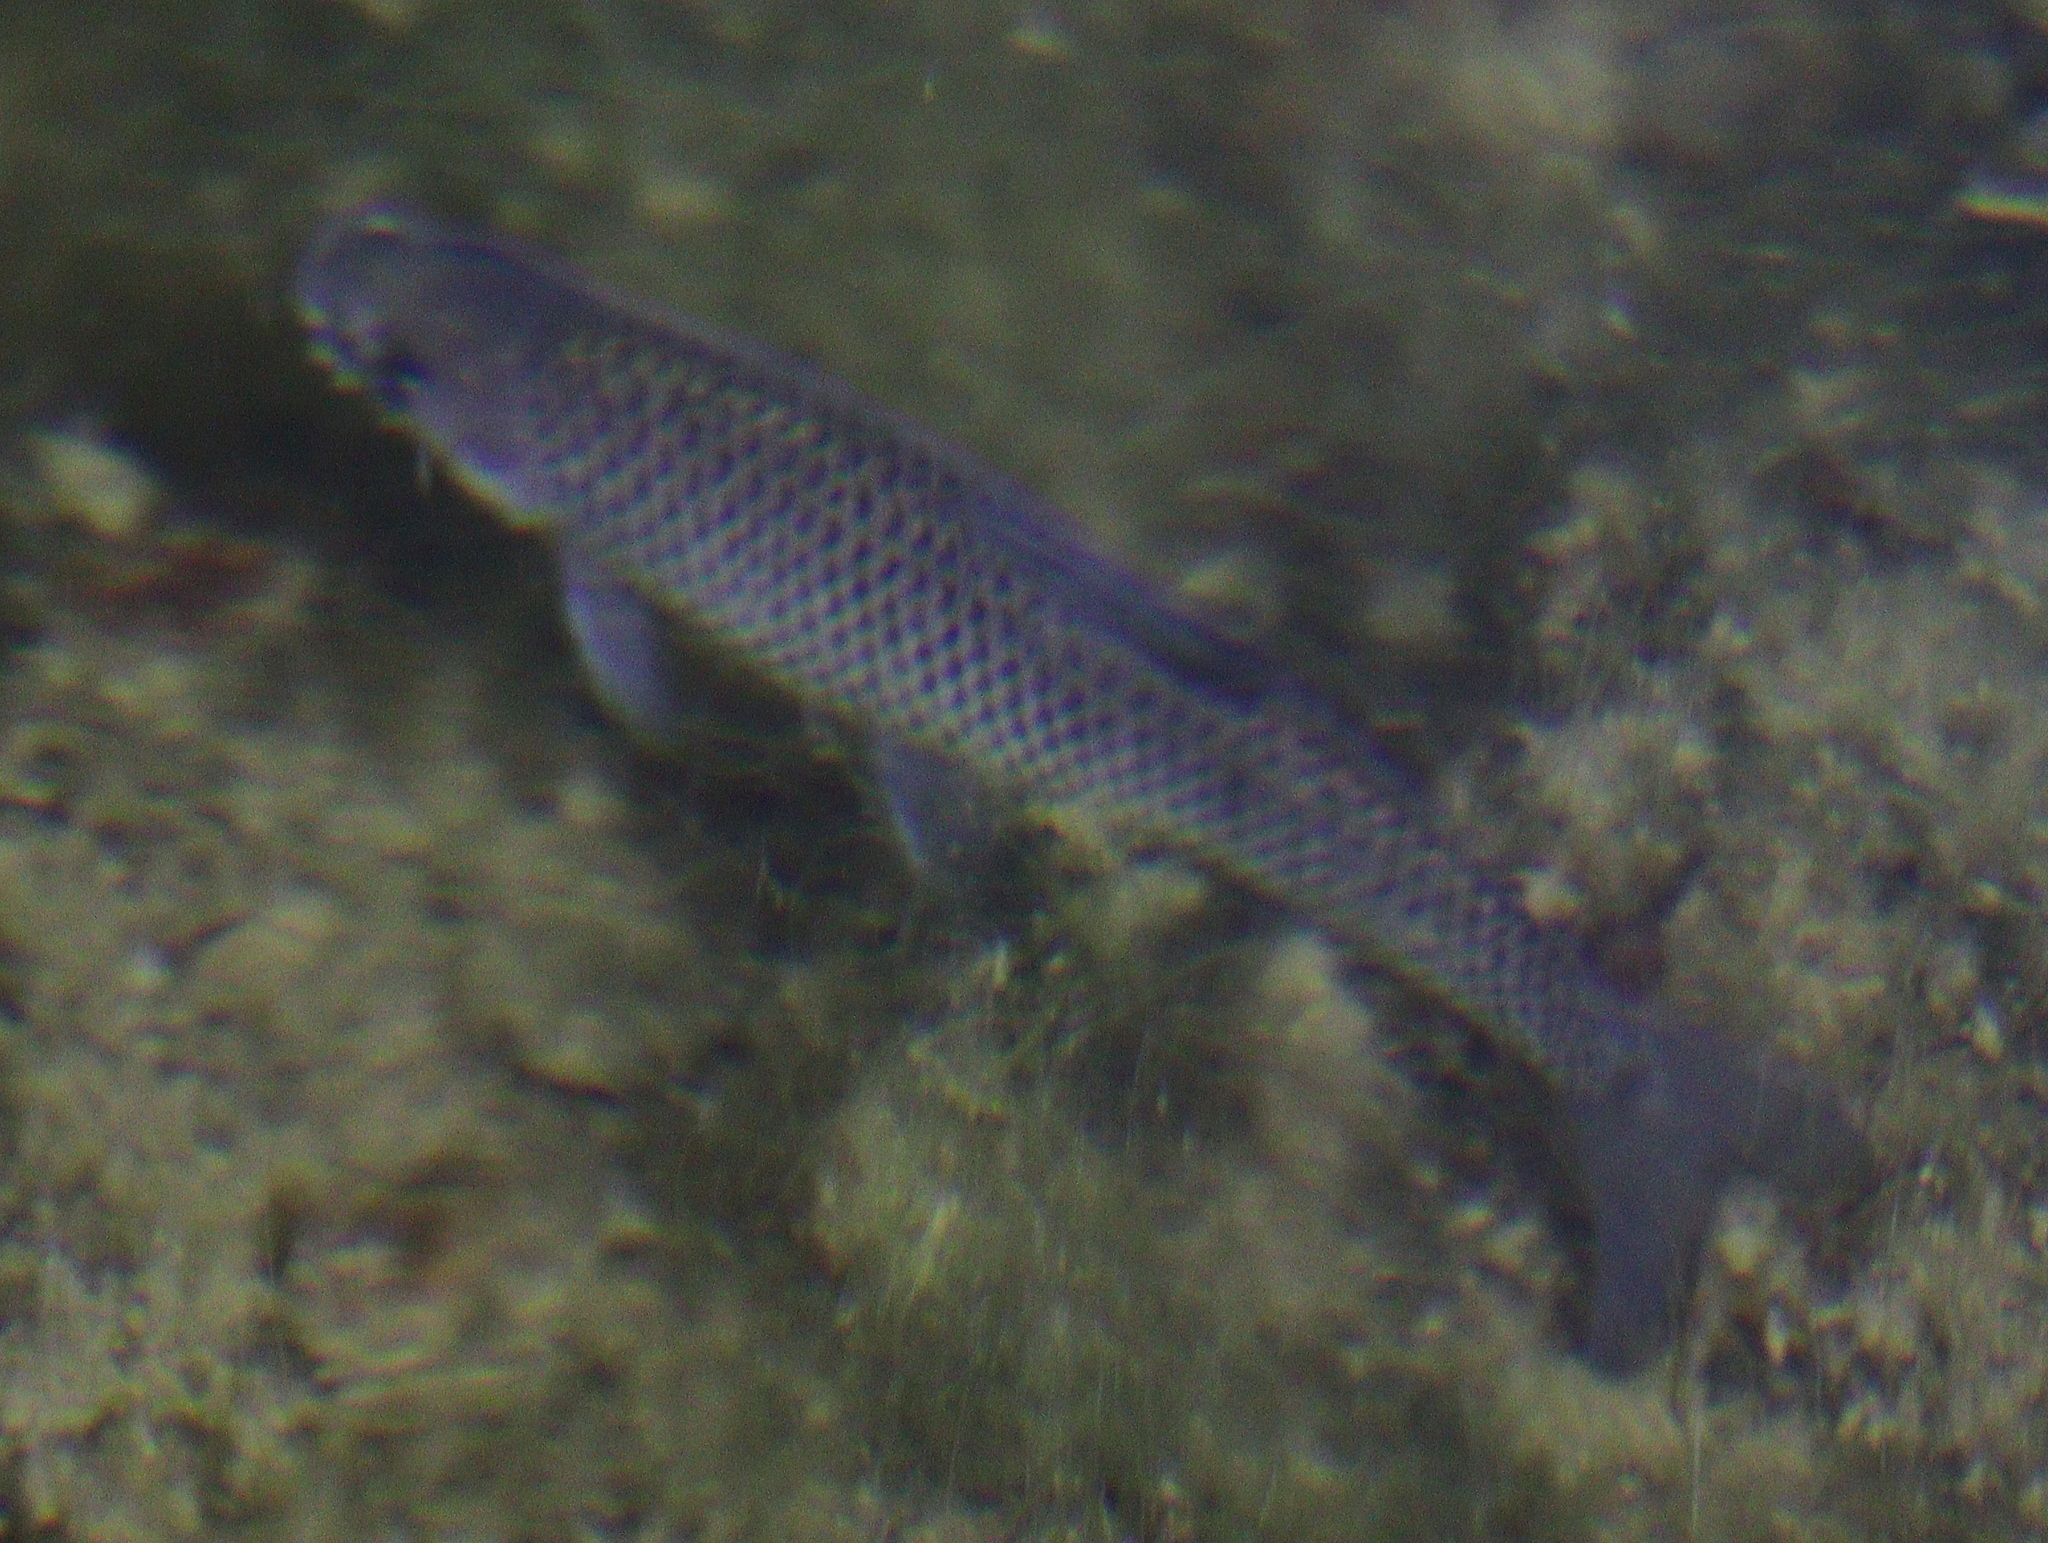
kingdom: Animalia
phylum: Chordata
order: Cypriniformes
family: Cyprinidae
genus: Pseudorasbora
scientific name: Pseudorasbora parva
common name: Topmouth gudgeon
